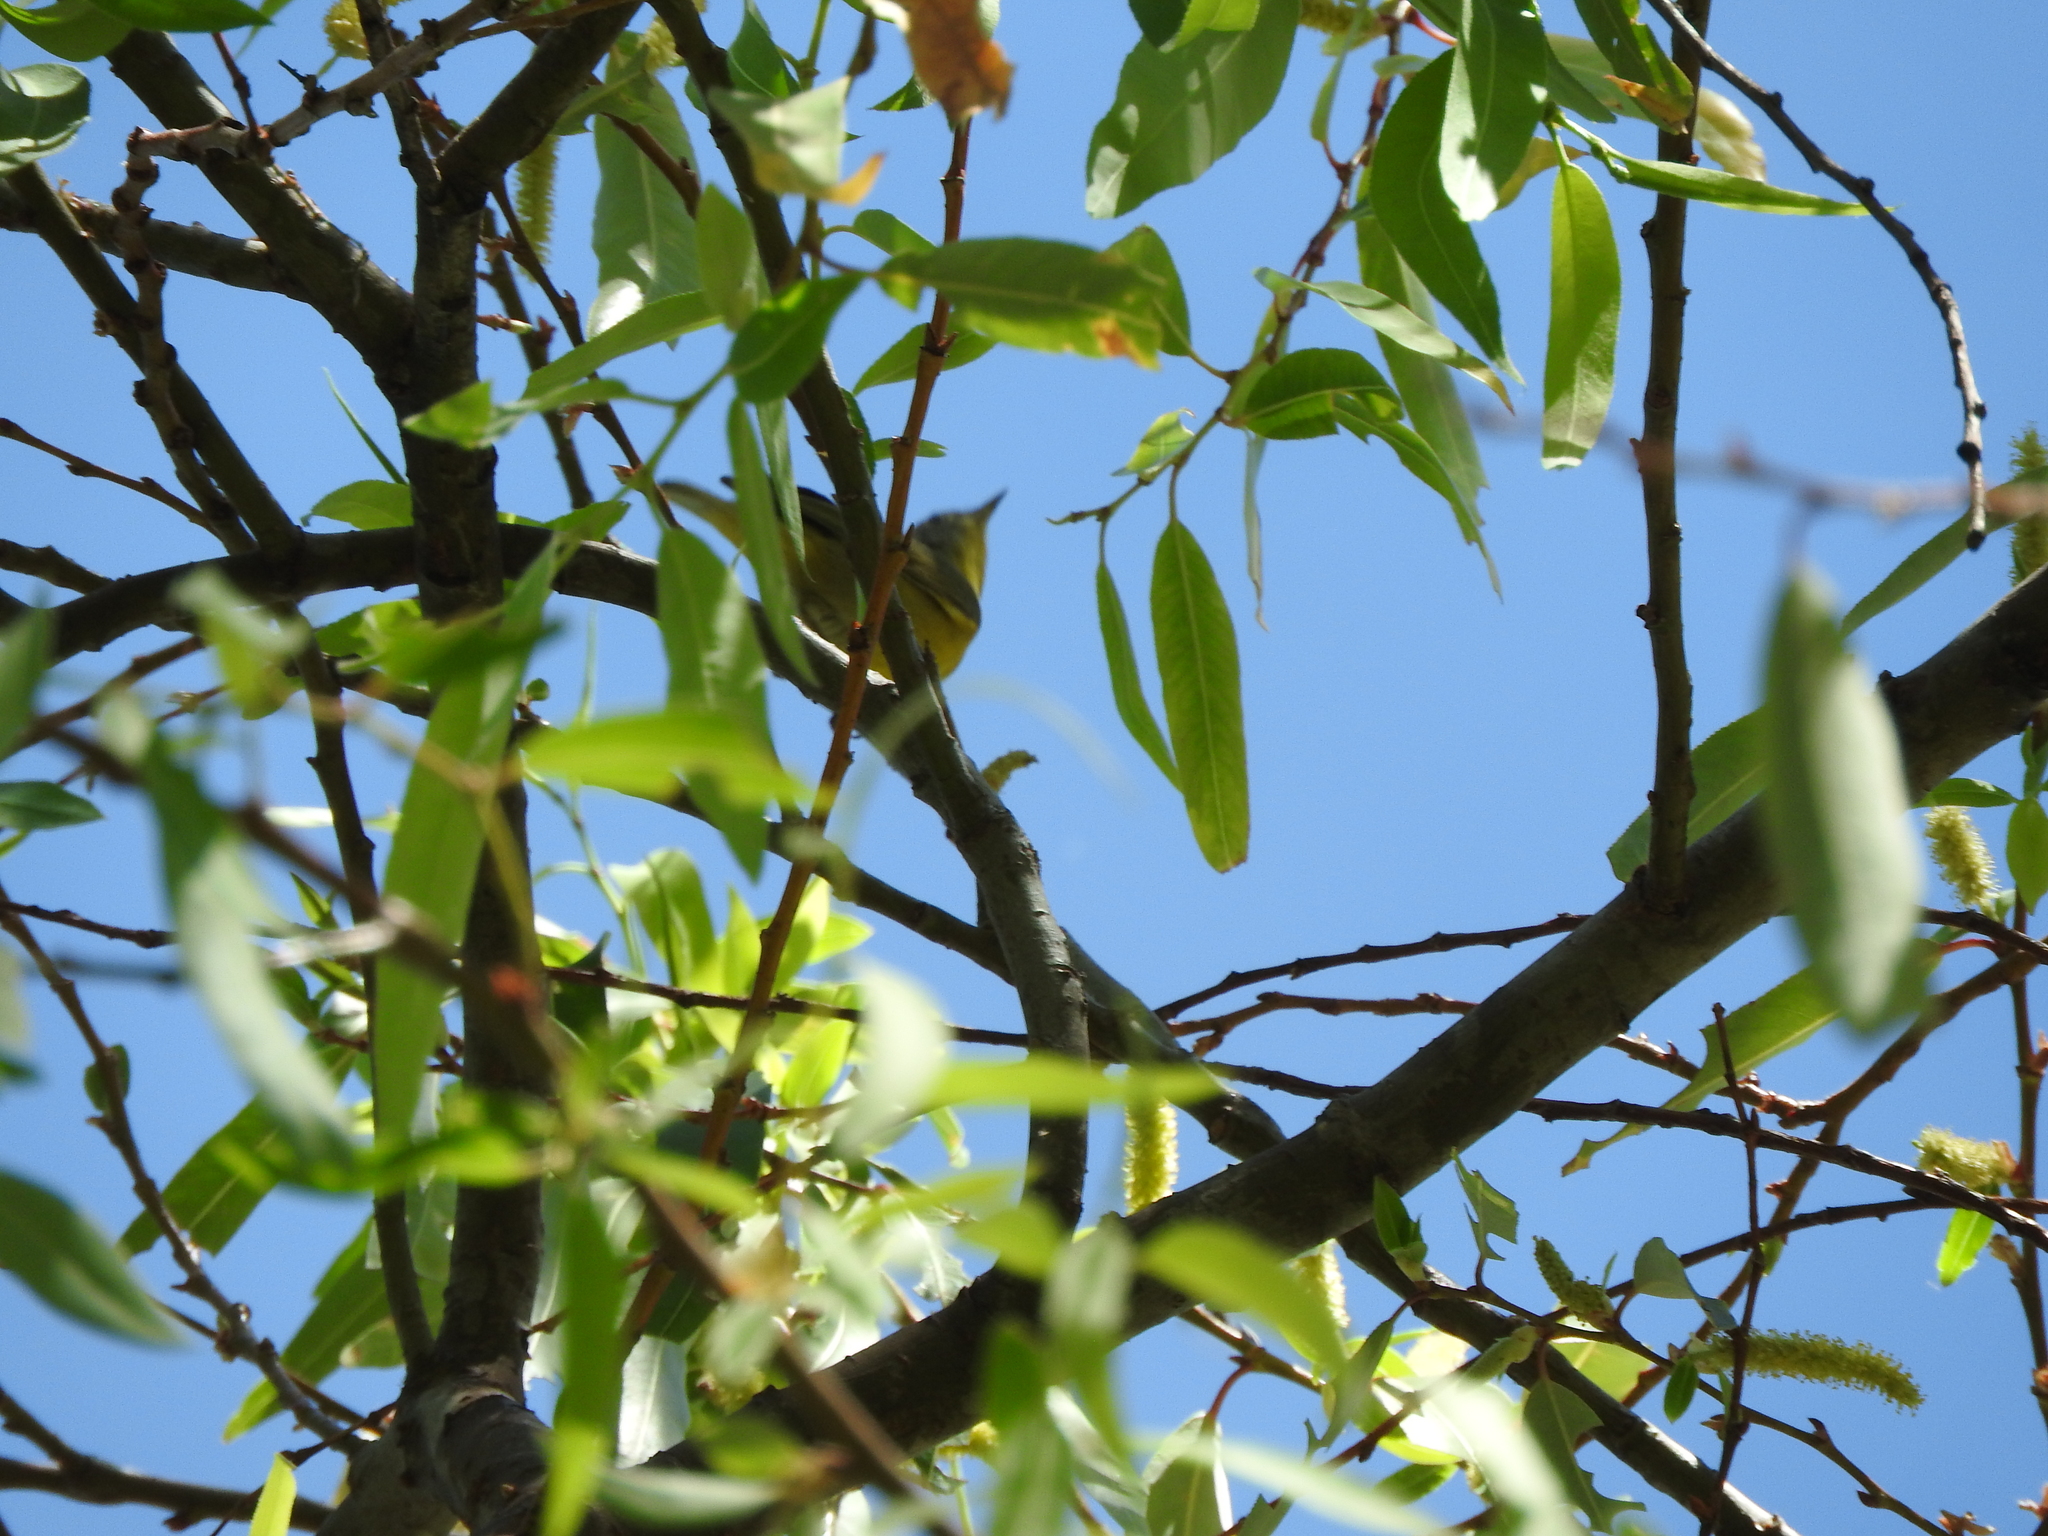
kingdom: Animalia
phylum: Chordata
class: Aves
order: Passeriformes
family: Parulidae
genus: Cardellina
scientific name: Cardellina pusilla
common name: Wilson's warbler
